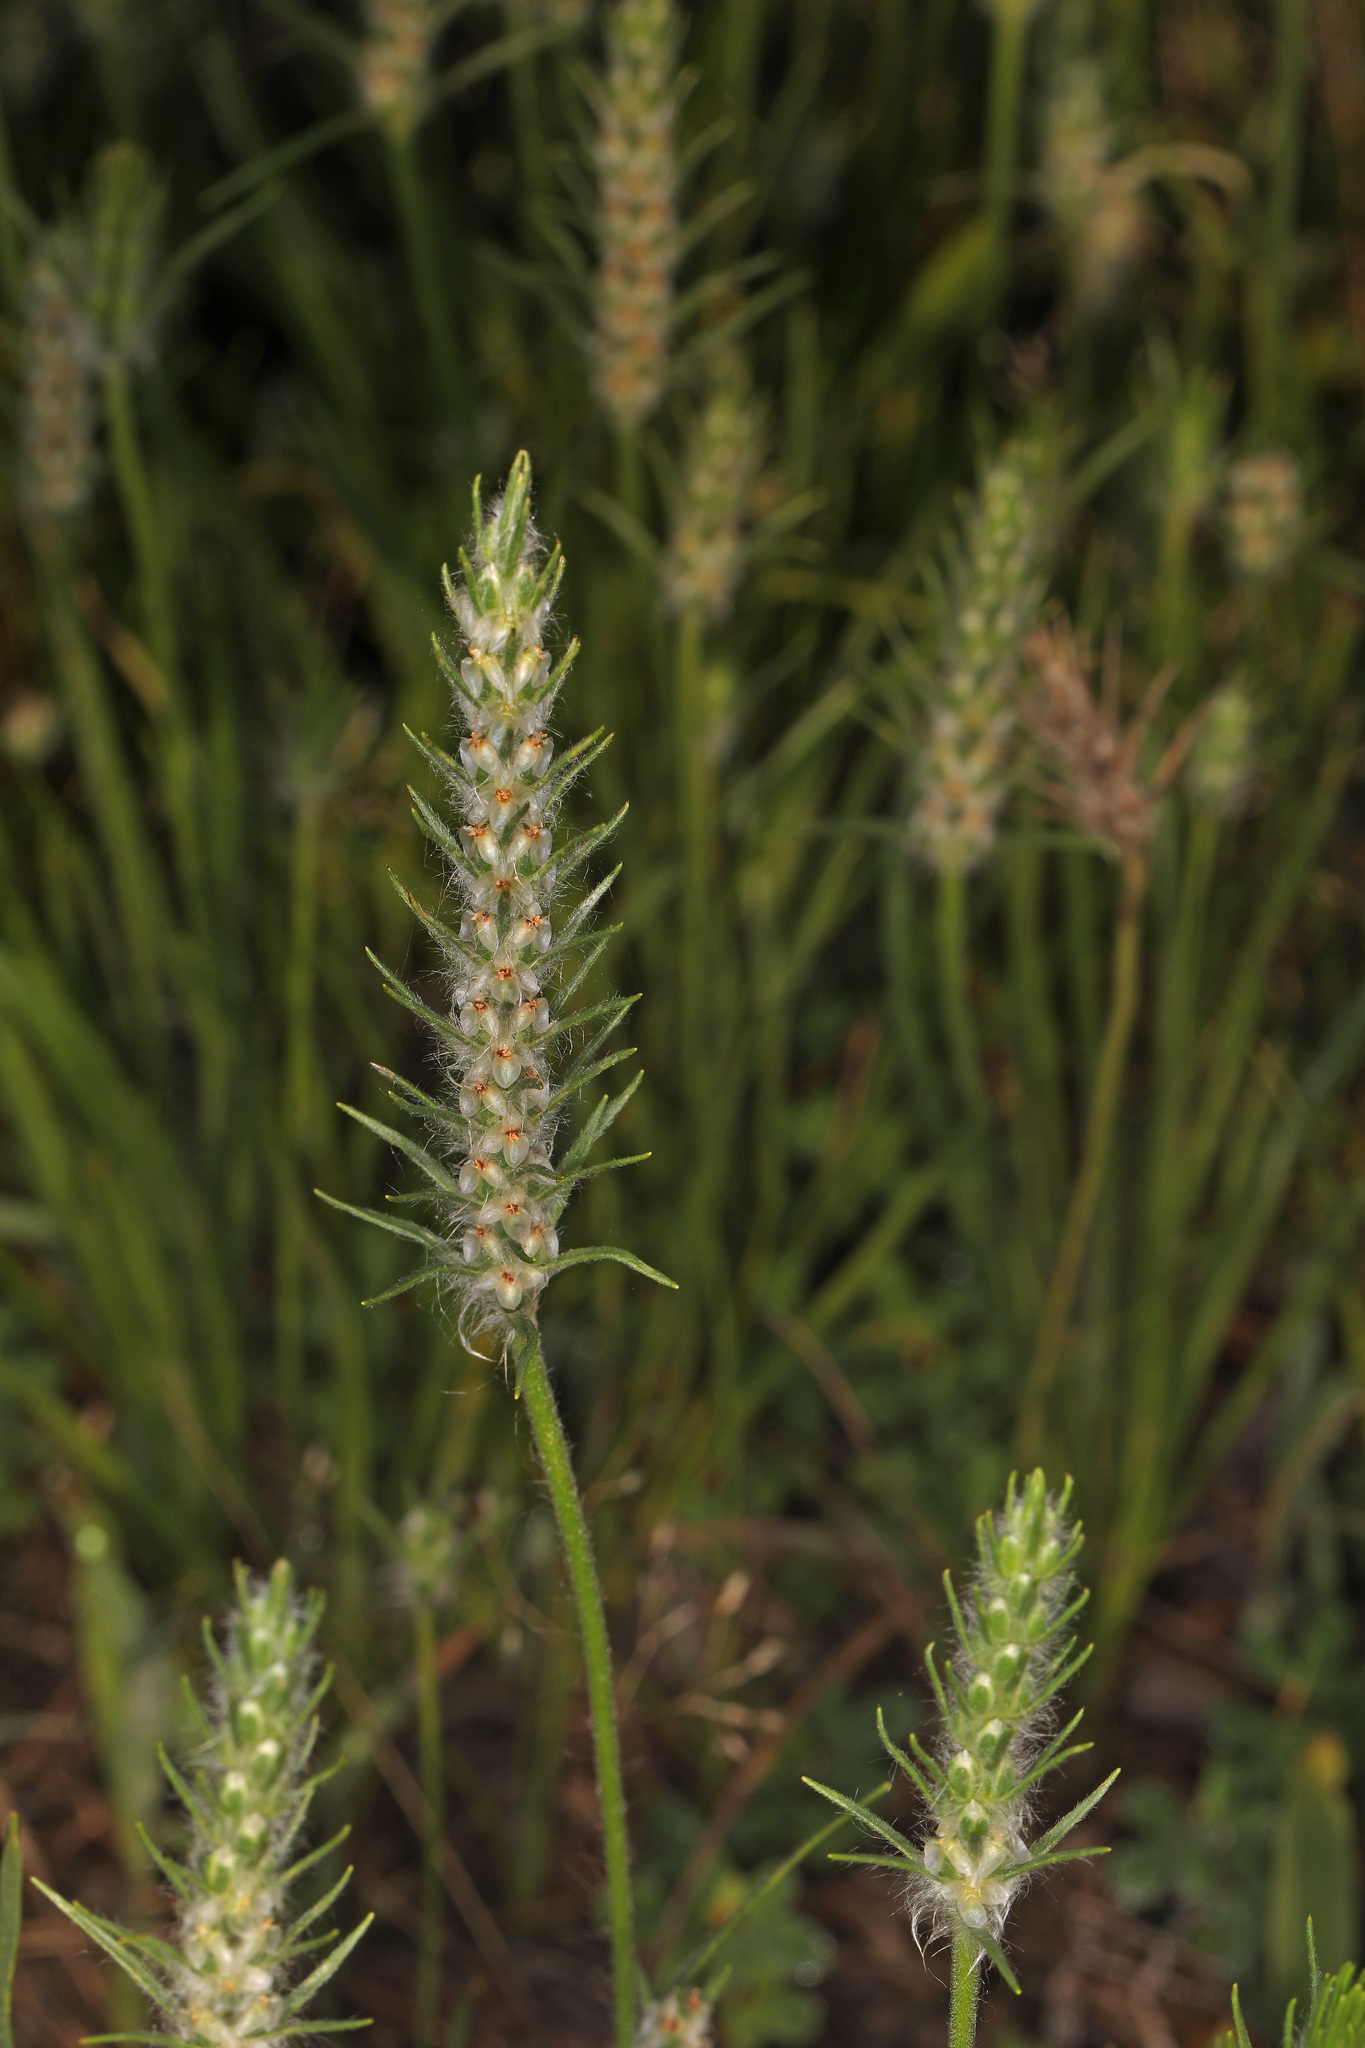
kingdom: Plantae
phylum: Tracheophyta
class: Magnoliopsida
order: Lamiales
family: Plantaginaceae
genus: Plantago
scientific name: Plantago aristata
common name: Bracted plantain
